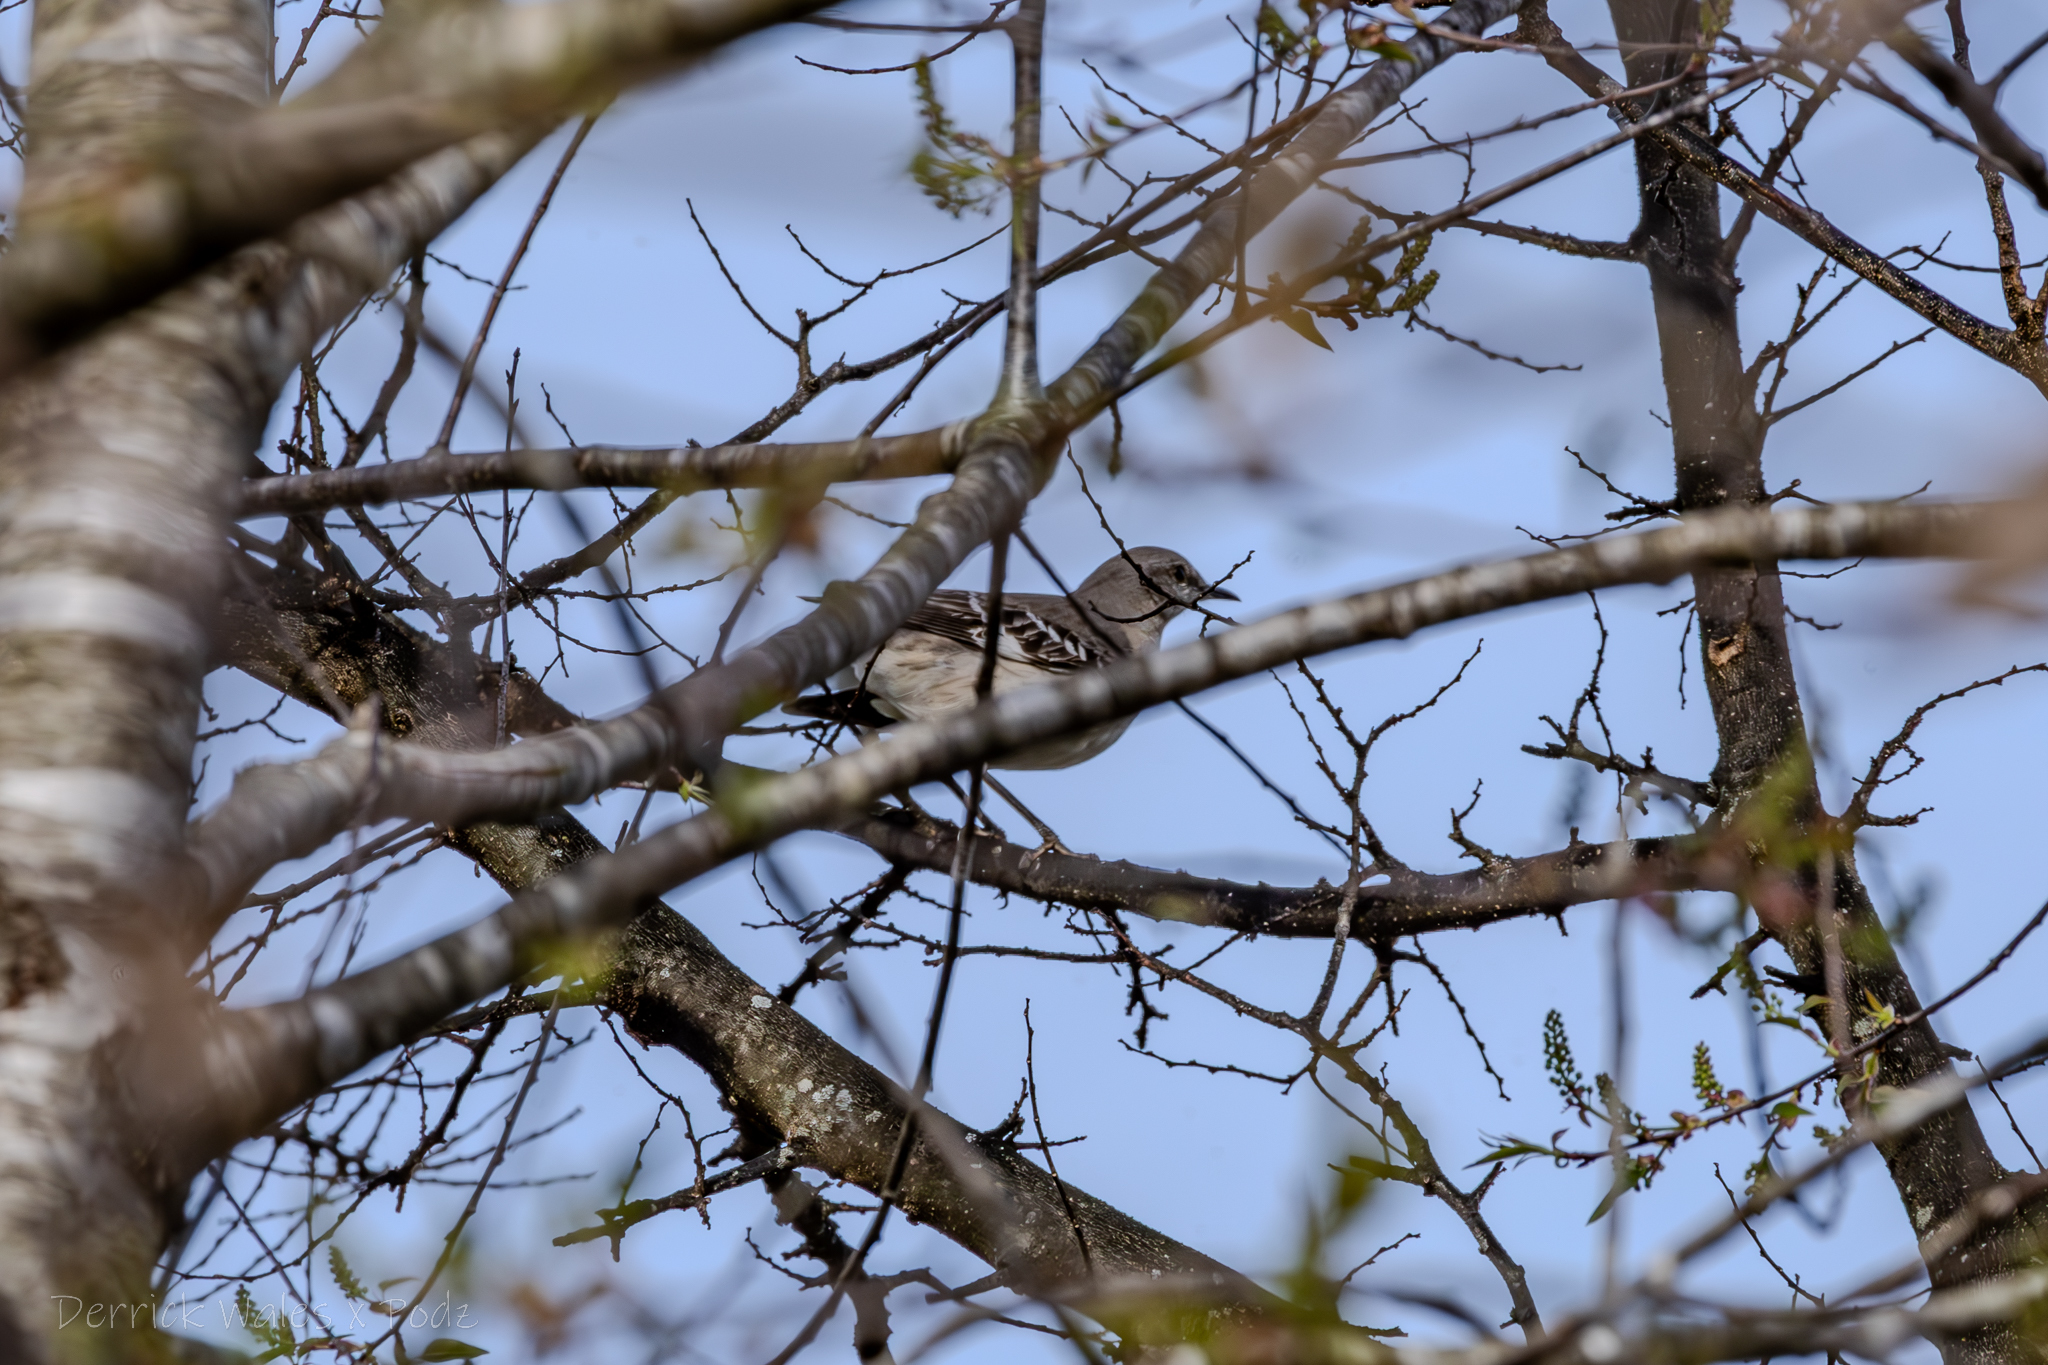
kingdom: Animalia
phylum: Chordata
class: Aves
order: Passeriformes
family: Mimidae
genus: Mimus
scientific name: Mimus polyglottos
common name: Northern mockingbird
